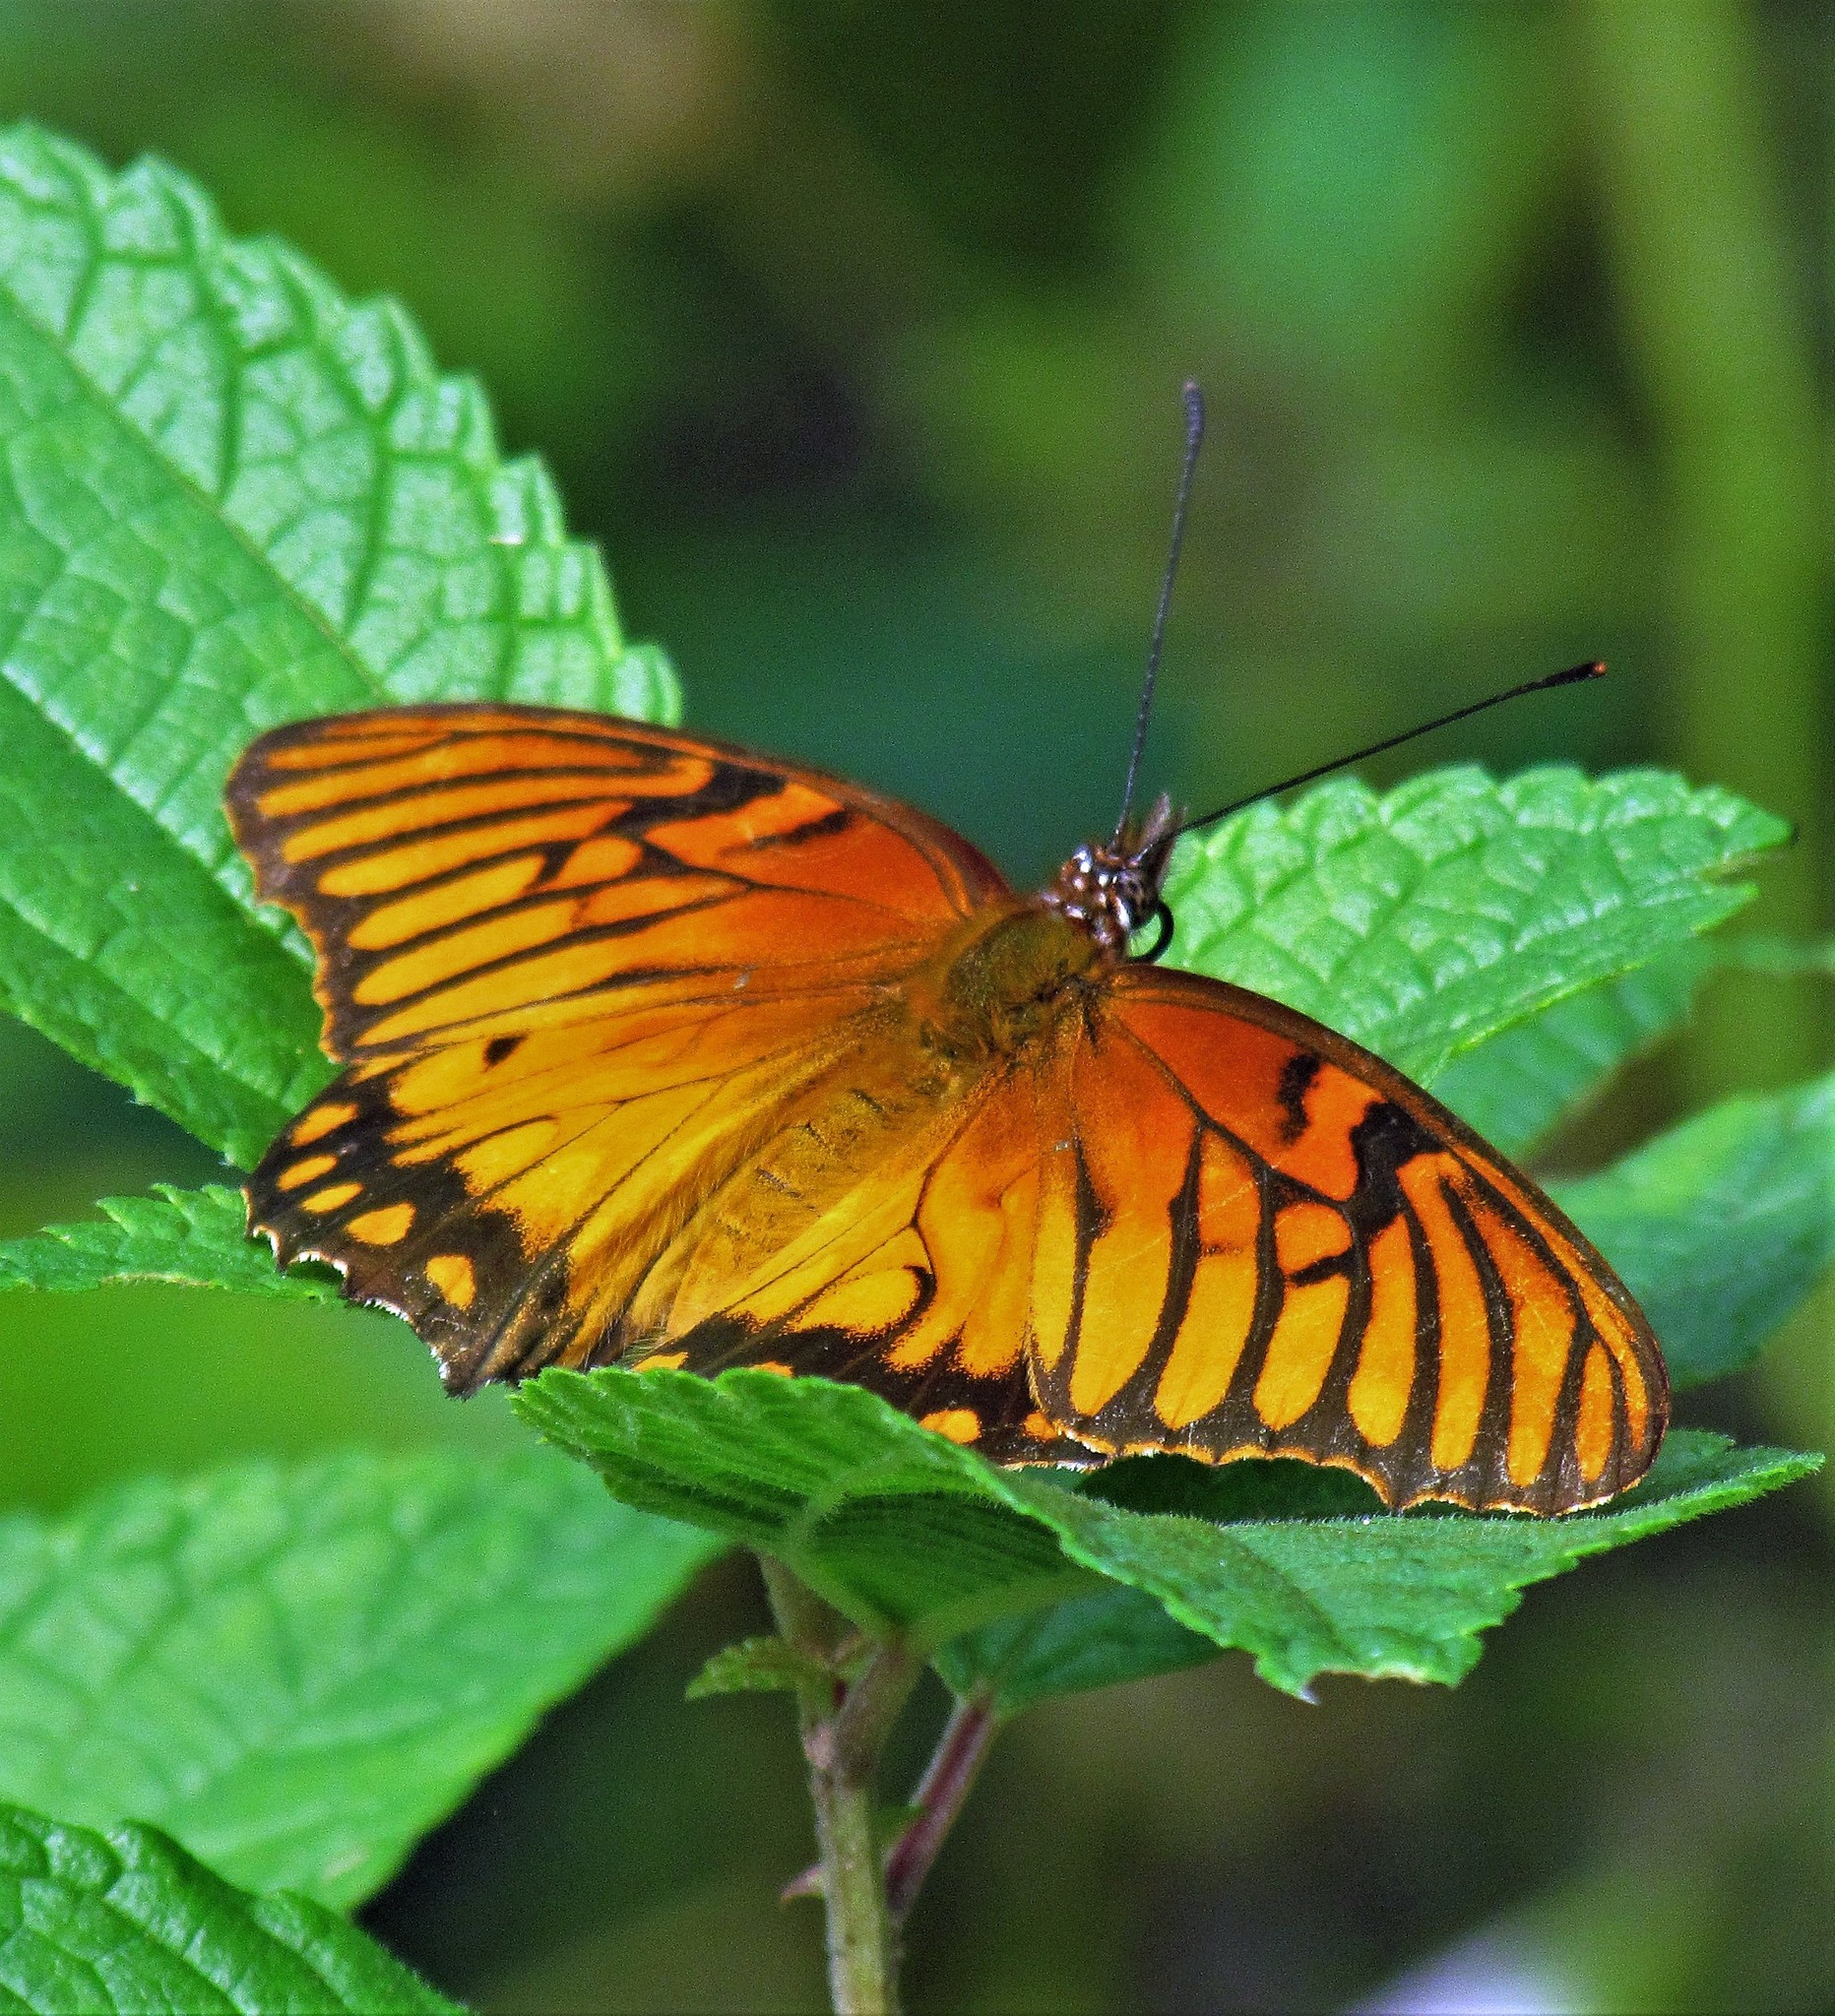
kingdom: Animalia
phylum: Arthropoda
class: Insecta
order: Lepidoptera
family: Nymphalidae
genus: Dione
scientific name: Dione moneta
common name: Mexican silverspot
